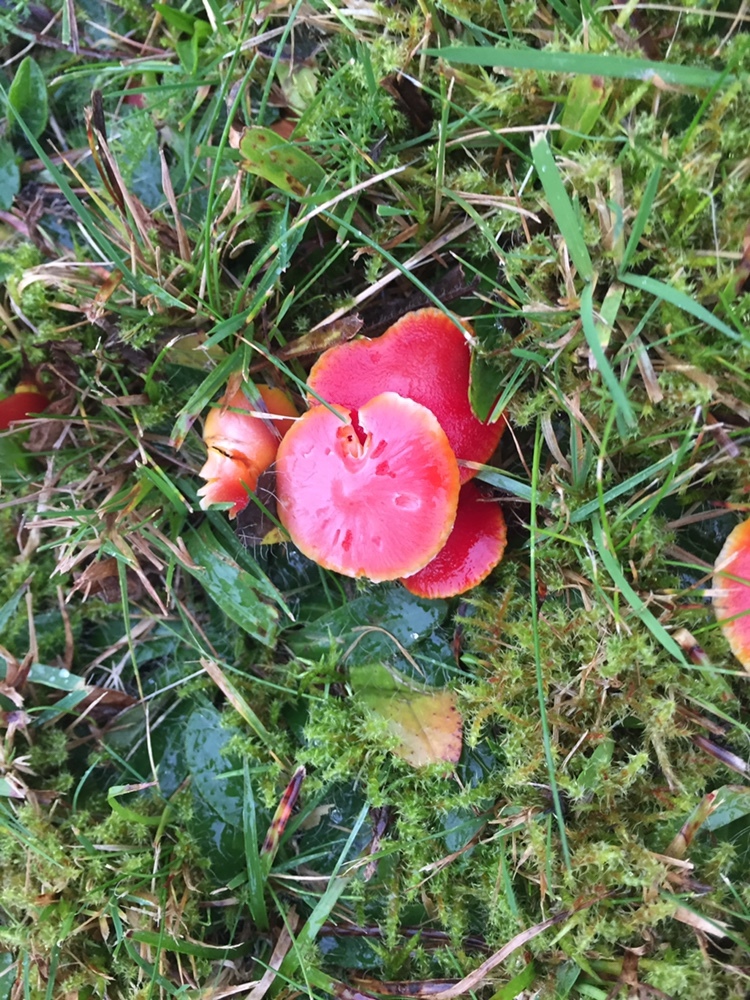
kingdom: Fungi
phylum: Basidiomycota
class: Agaricomycetes
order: Agaricales
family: Hygrophoraceae
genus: Hygrocybe
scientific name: Hygrocybe coccinea
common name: Scarlet hood
